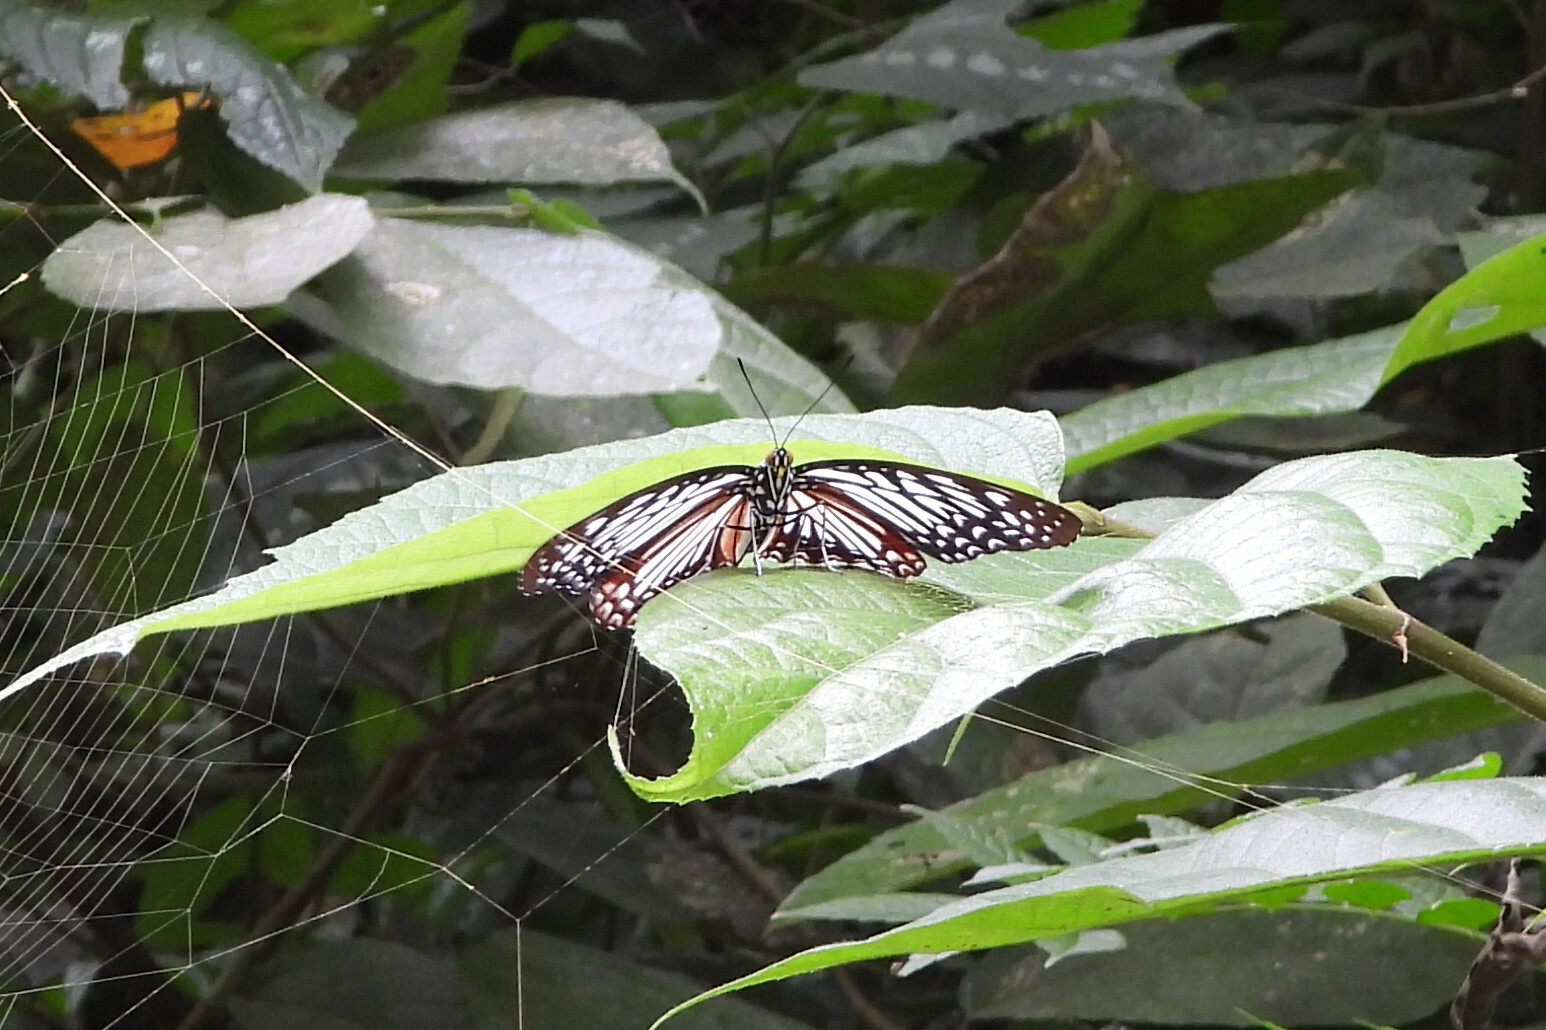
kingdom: Animalia
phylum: Arthropoda
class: Insecta
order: Lepidoptera
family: Nymphalidae
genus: Hestinalis
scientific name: Hestinalis nama
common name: Circe
